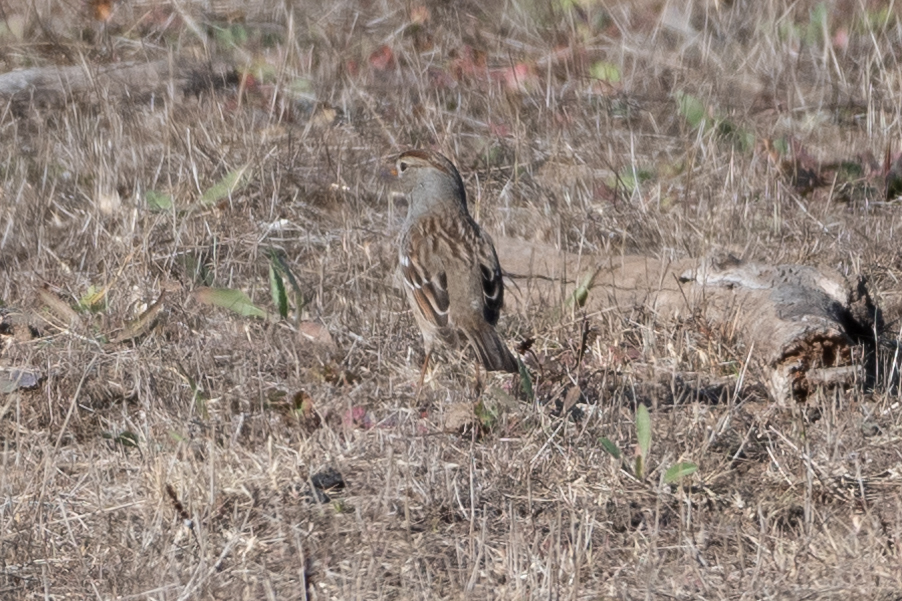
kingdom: Animalia
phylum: Chordata
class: Aves
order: Passeriformes
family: Passerellidae
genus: Zonotrichia
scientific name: Zonotrichia atricapilla
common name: Golden-crowned sparrow
